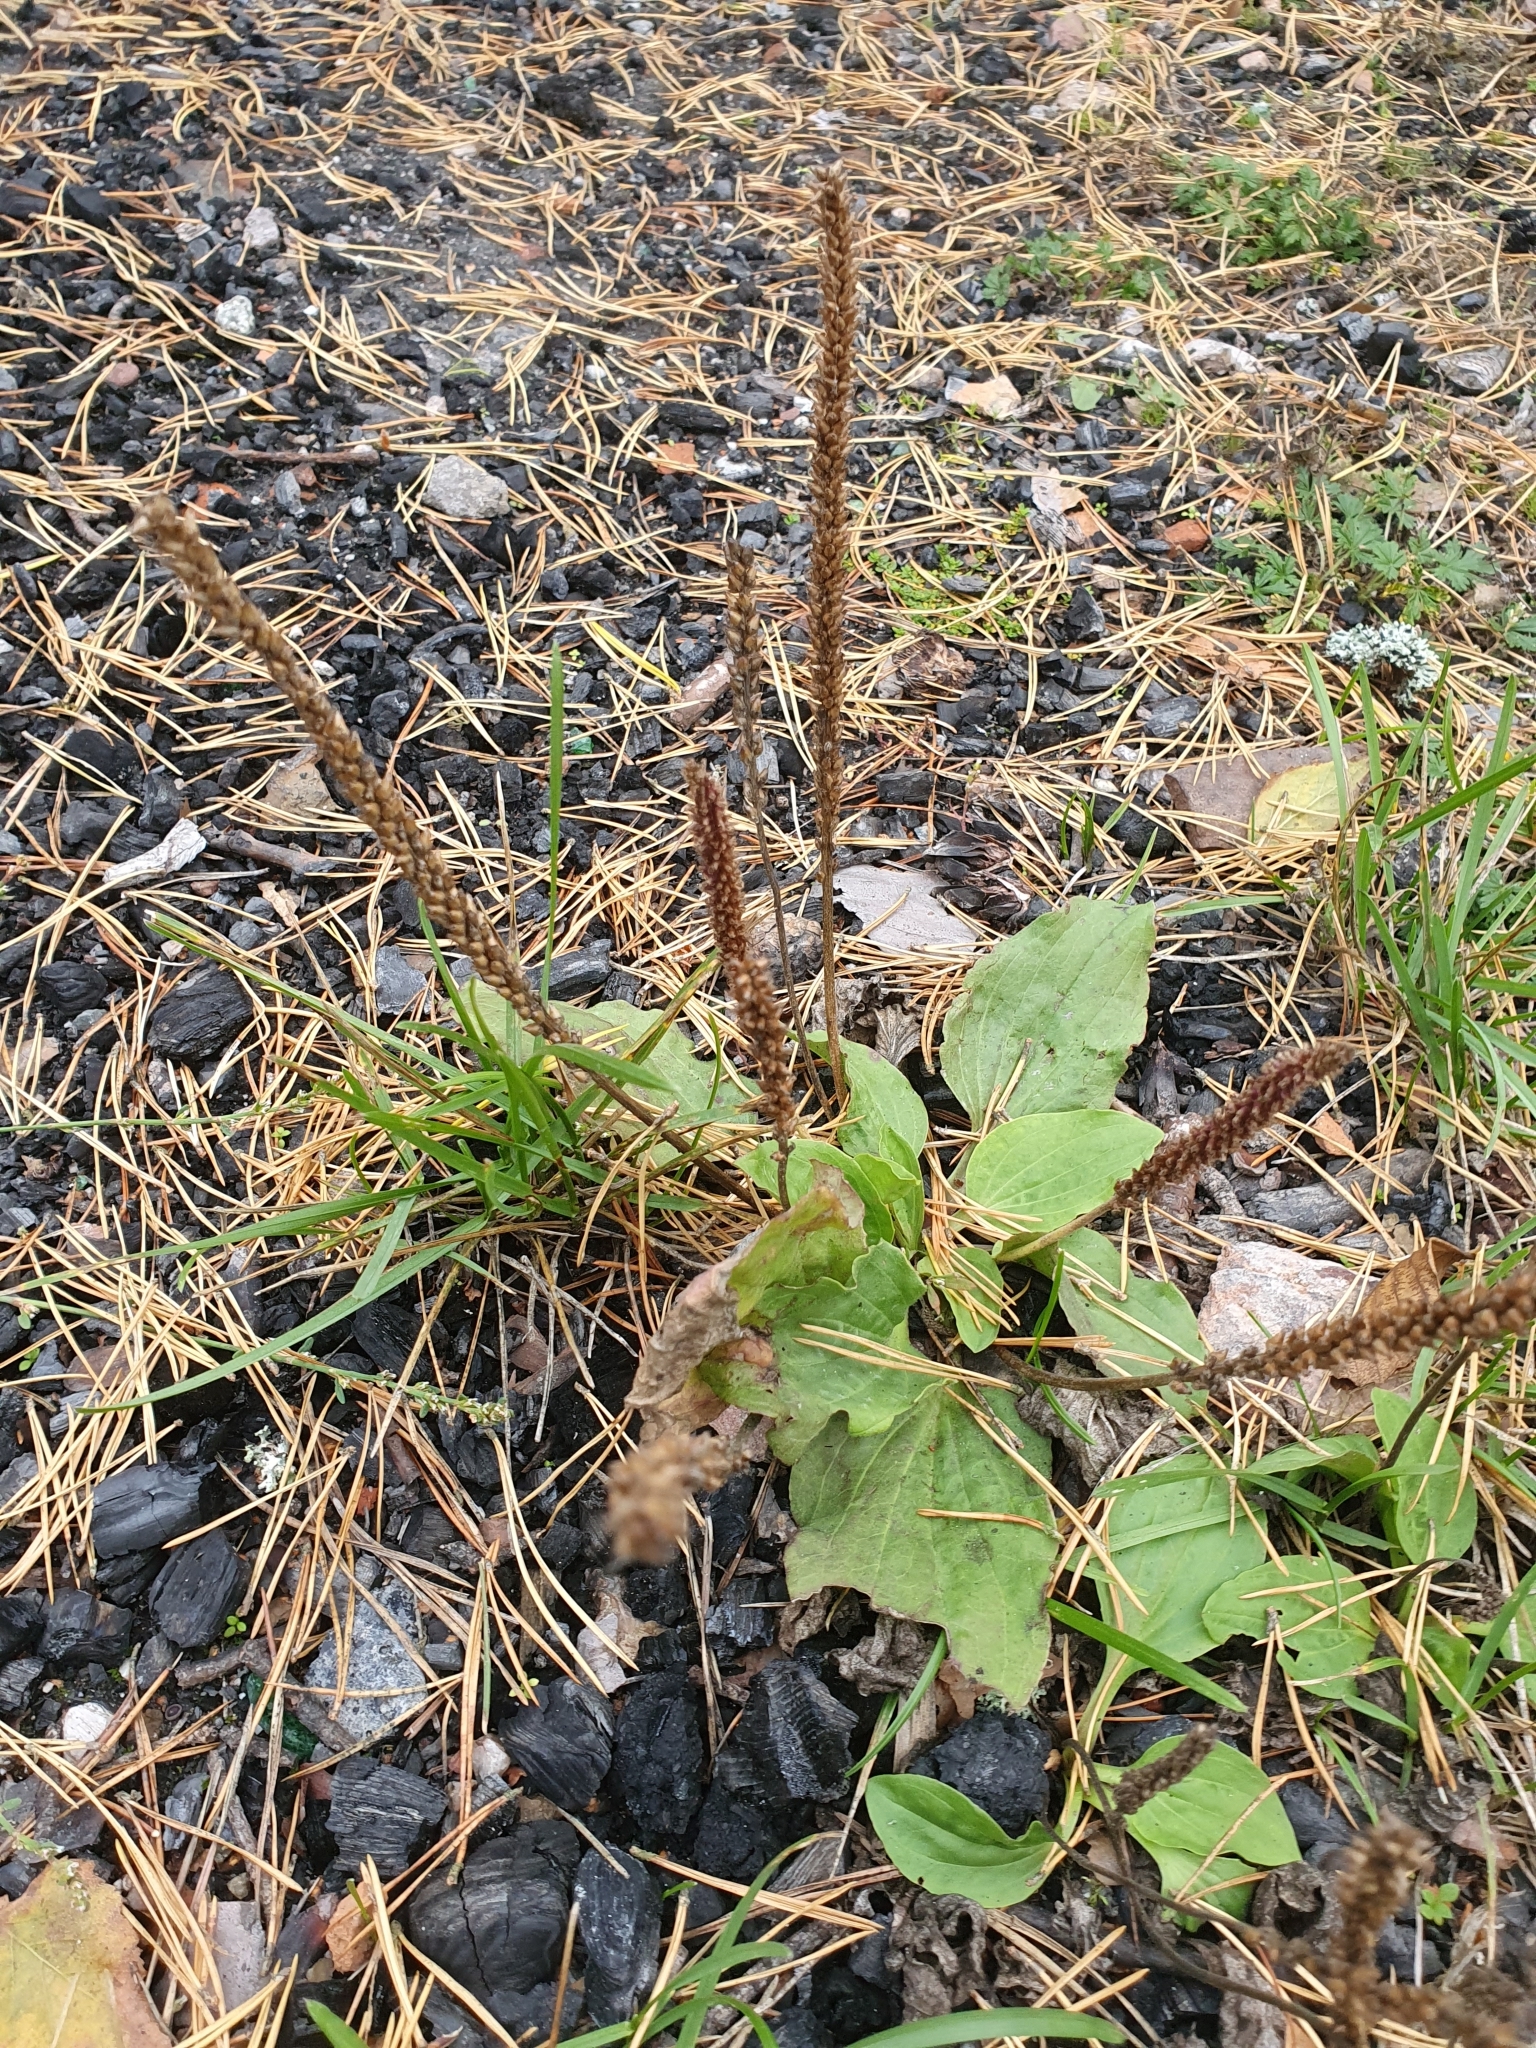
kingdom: Plantae
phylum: Tracheophyta
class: Magnoliopsida
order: Lamiales
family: Plantaginaceae
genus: Plantago
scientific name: Plantago major
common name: Common plantain
